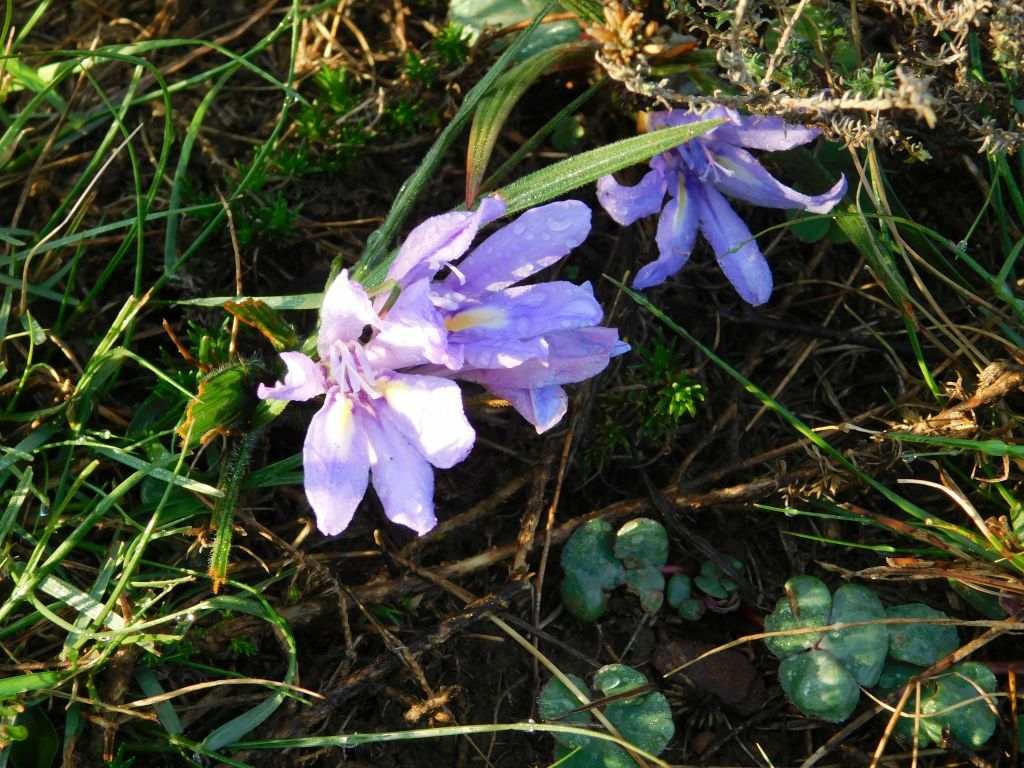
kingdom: Plantae
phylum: Tracheophyta
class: Liliopsida
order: Asparagales
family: Iridaceae
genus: Babiana
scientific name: Babiana ambigua
